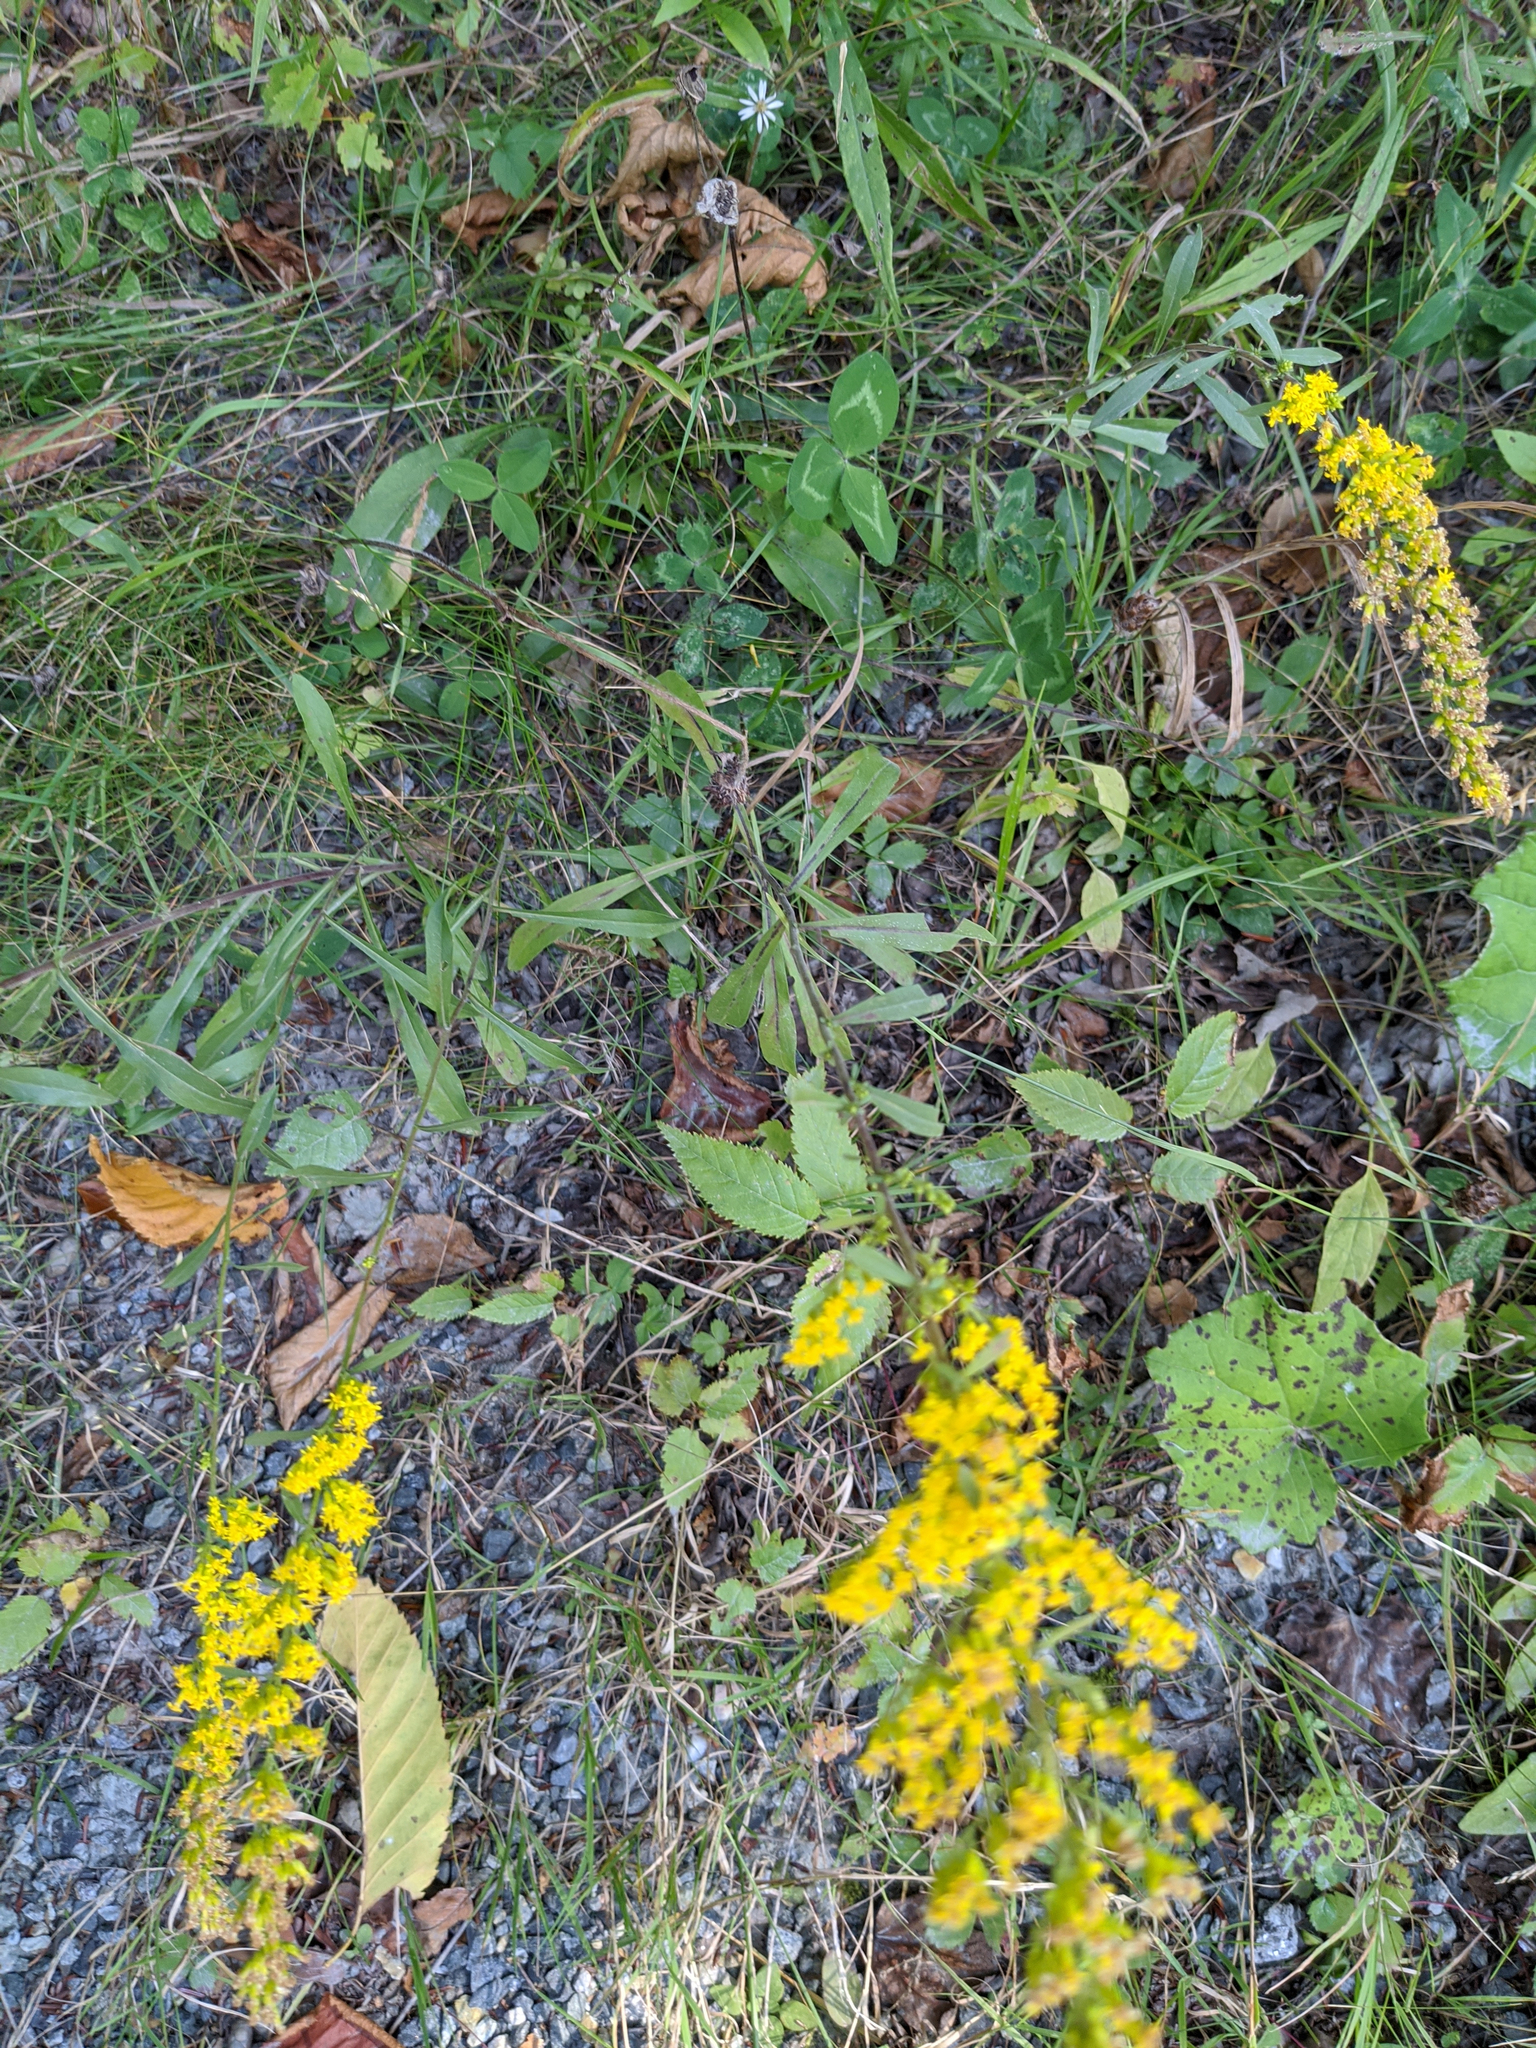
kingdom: Plantae
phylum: Tracheophyta
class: Magnoliopsida
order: Asterales
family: Asteraceae
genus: Solidago
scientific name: Solidago nemoralis
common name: Grey goldenrod
